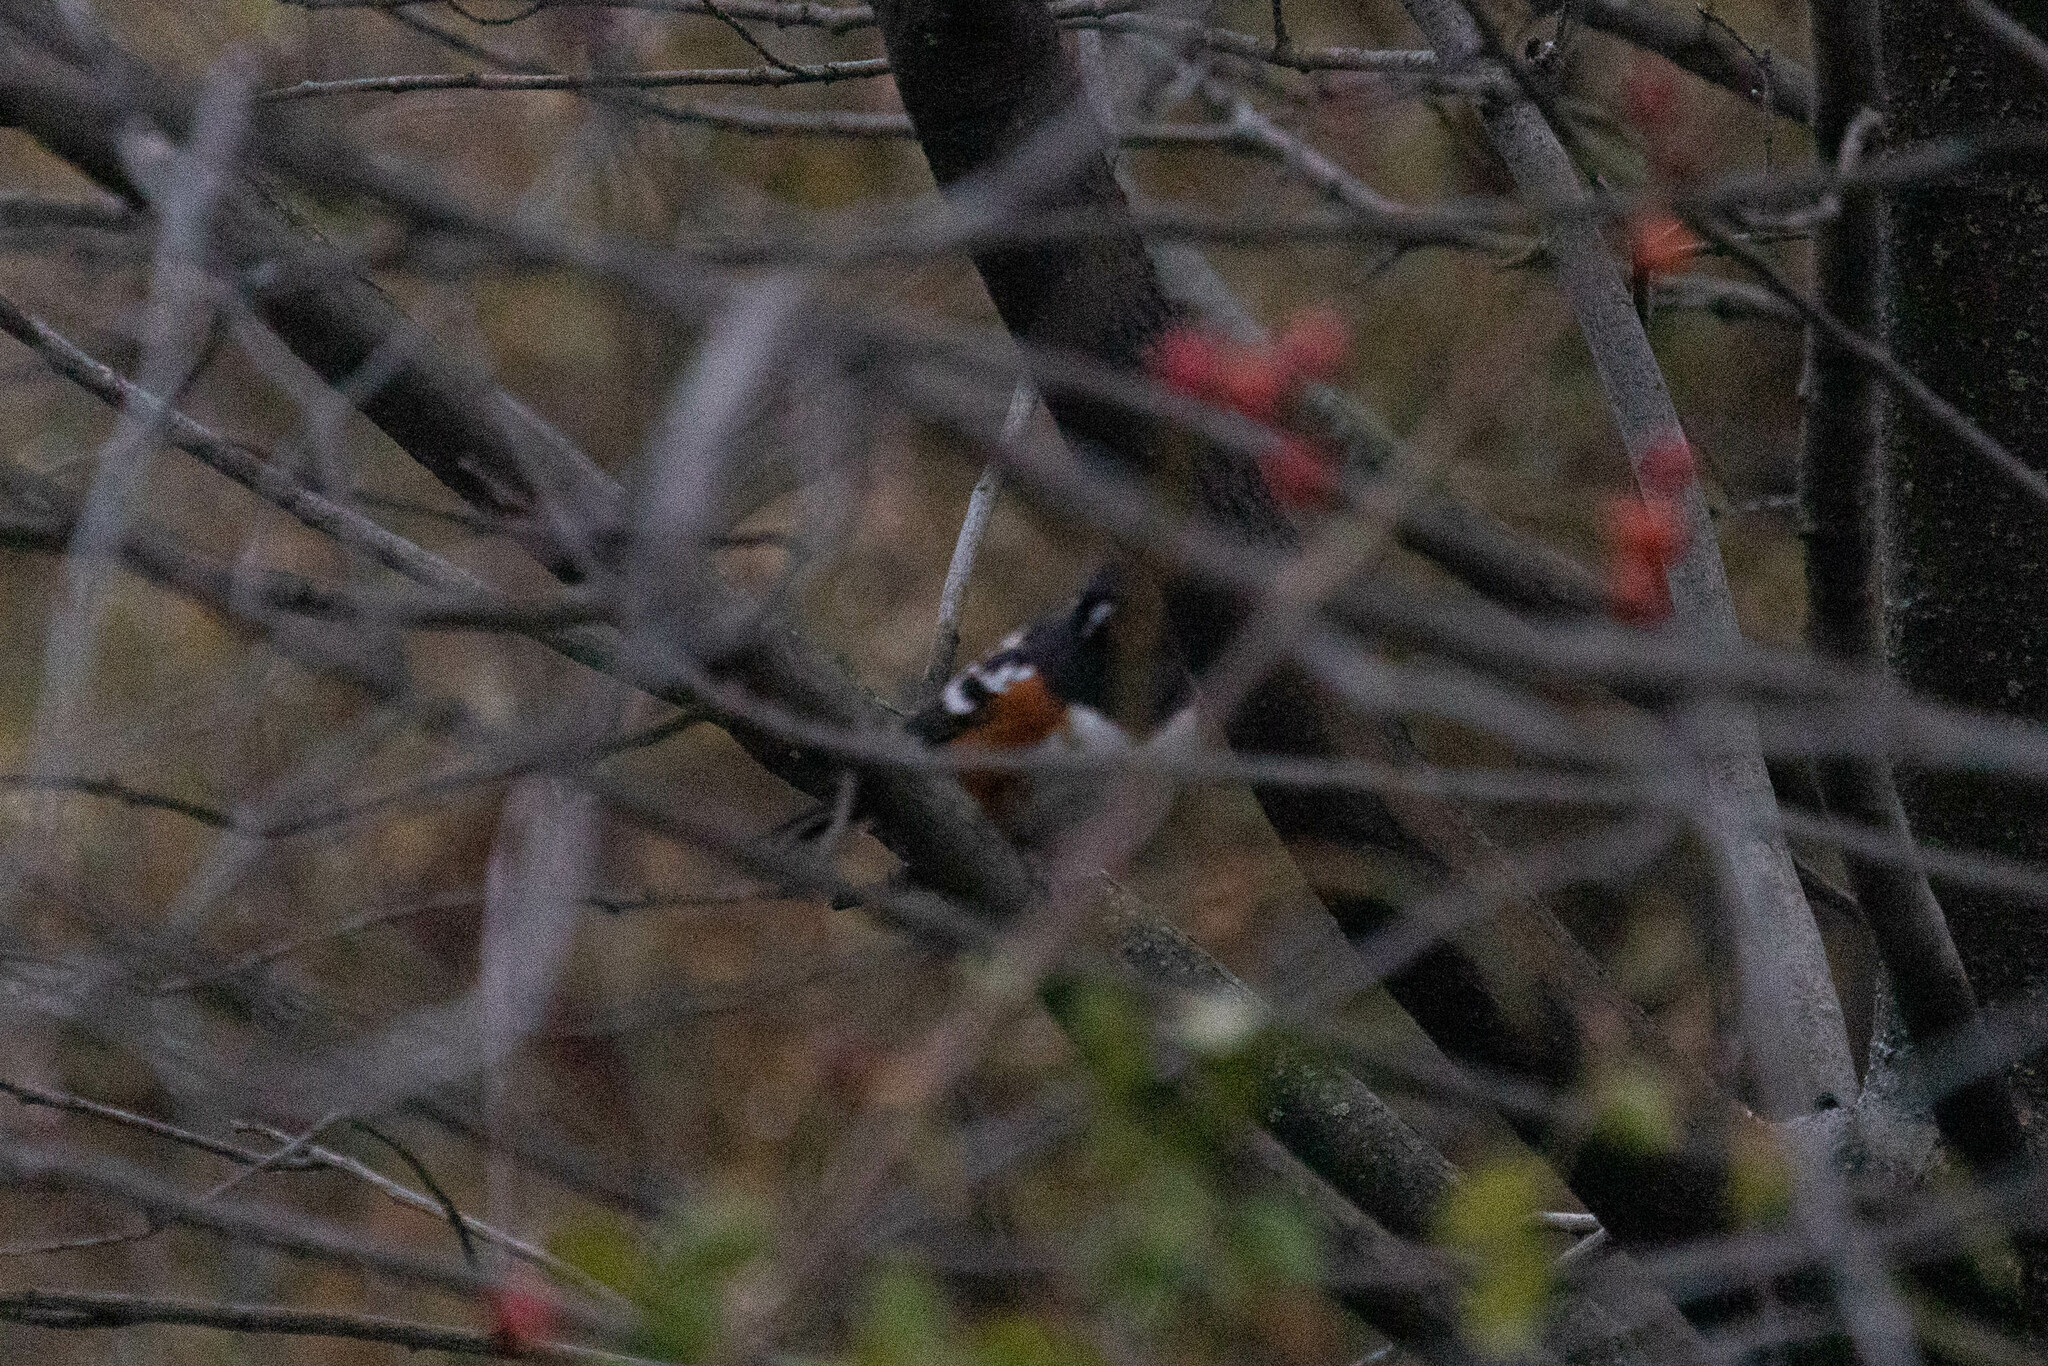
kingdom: Animalia
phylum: Chordata
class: Aves
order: Passeriformes
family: Passerellidae
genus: Pipilo
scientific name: Pipilo maculatus
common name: Spotted towhee
